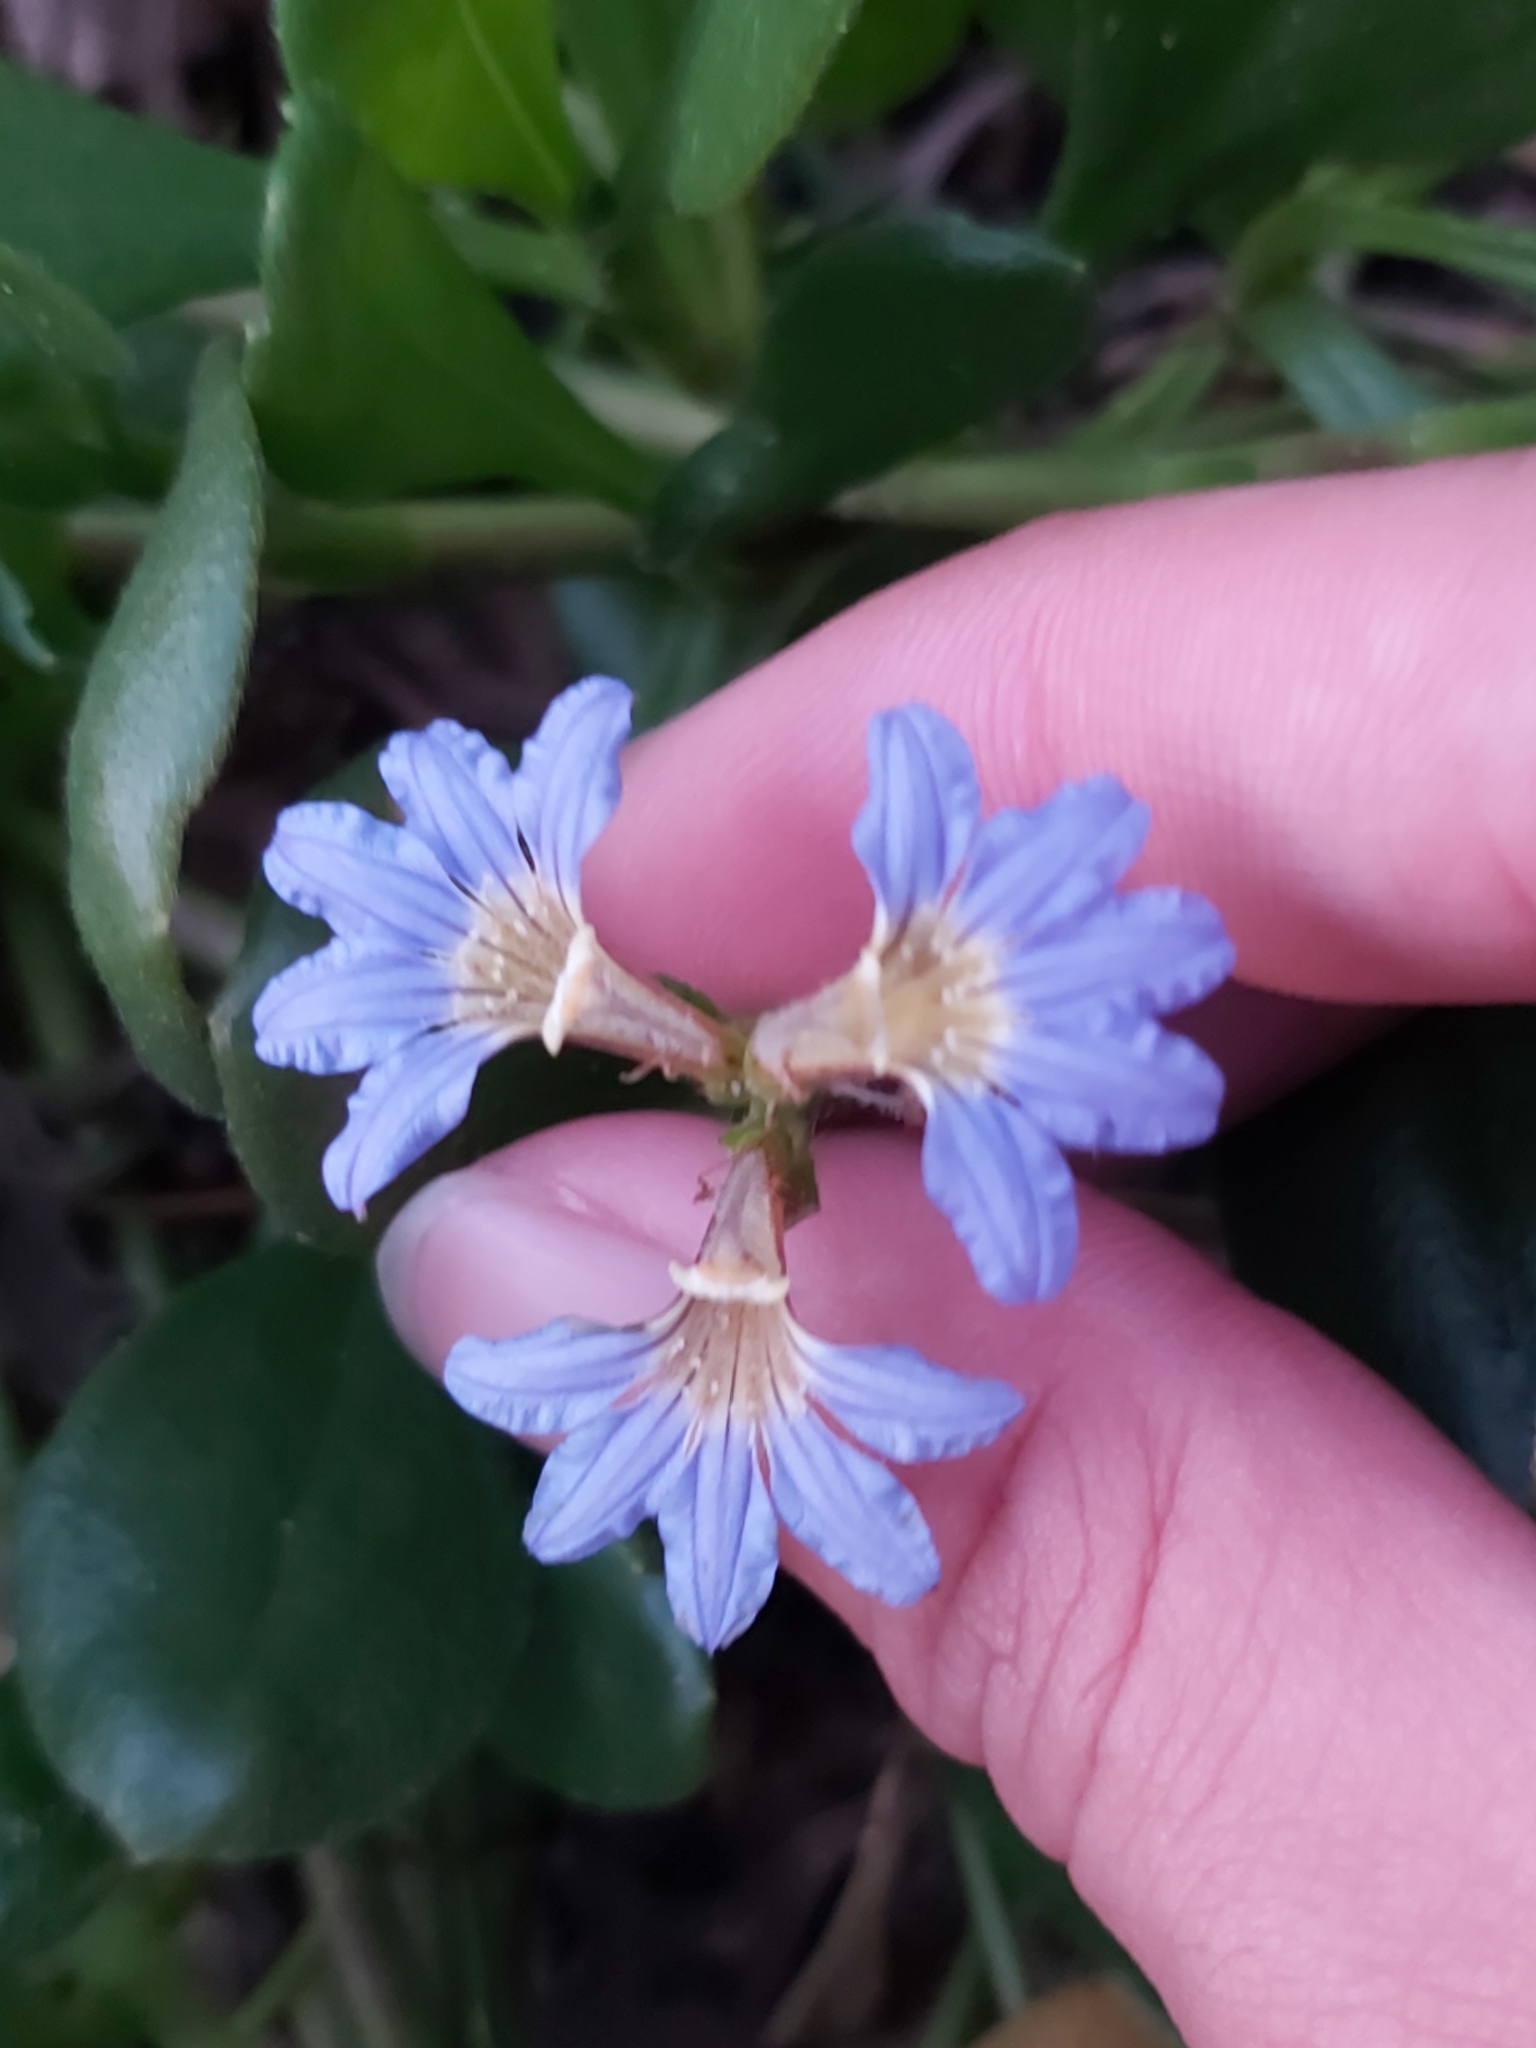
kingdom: Plantae
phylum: Tracheophyta
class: Magnoliopsida
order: Asterales
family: Goodeniaceae
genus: Scaevola
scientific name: Scaevola calendulacea
